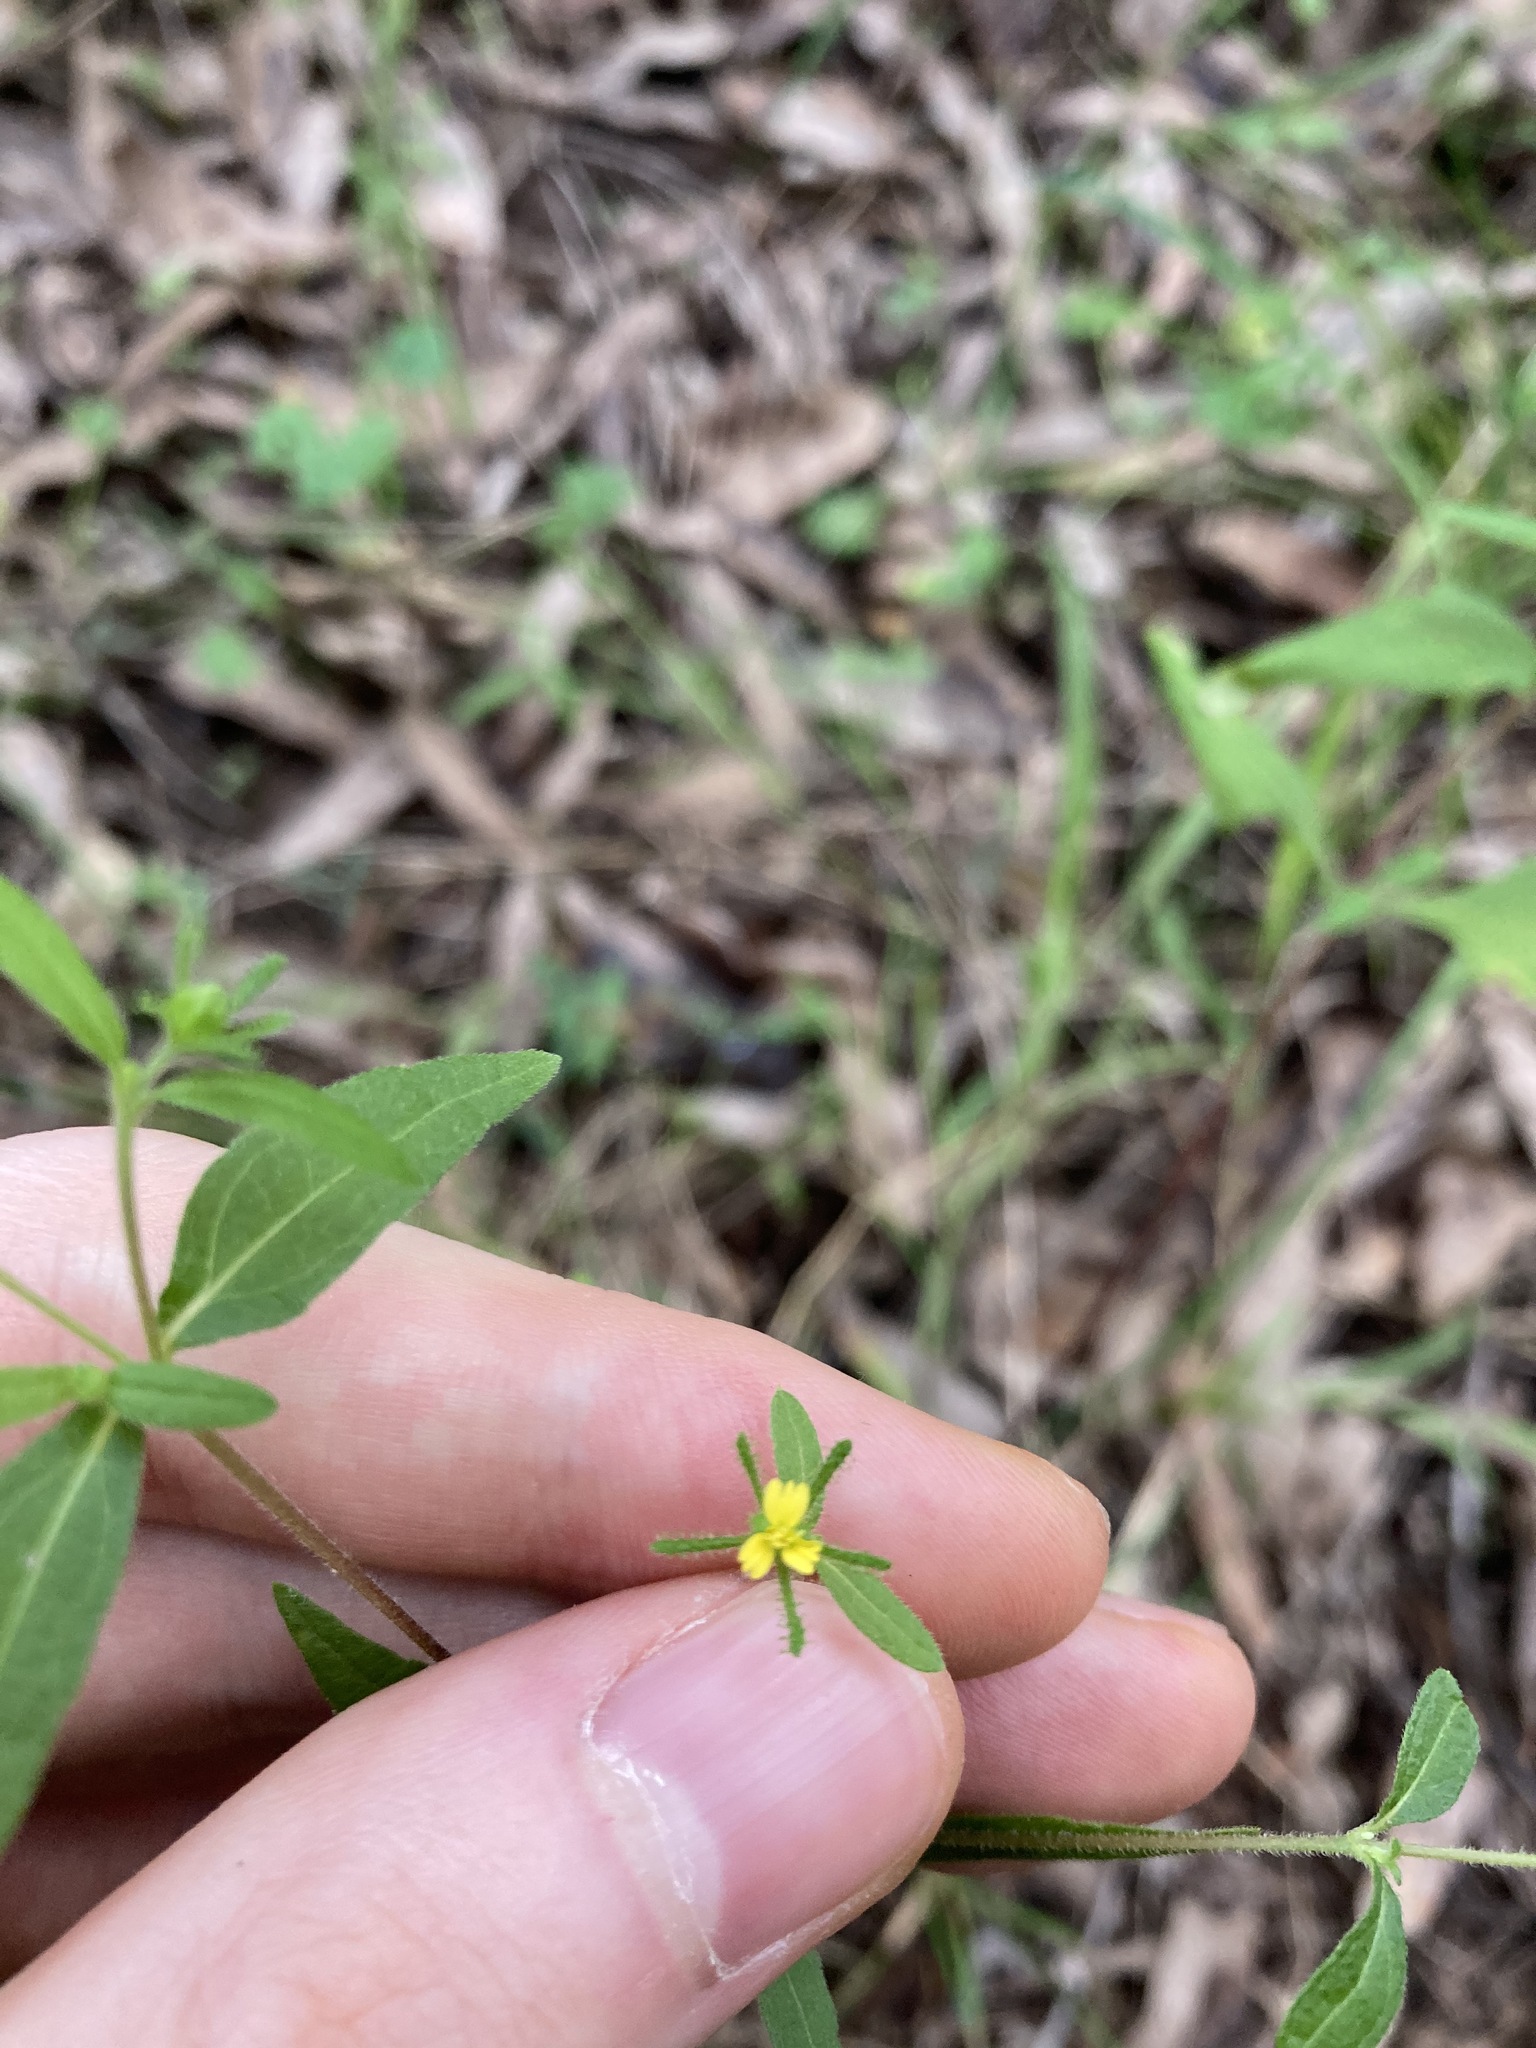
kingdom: Plantae
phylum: Tracheophyta
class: Magnoliopsida
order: Asterales
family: Asteraceae
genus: Sigesbeckia
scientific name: Sigesbeckia orientalis
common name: Eastern st paul's-wort
